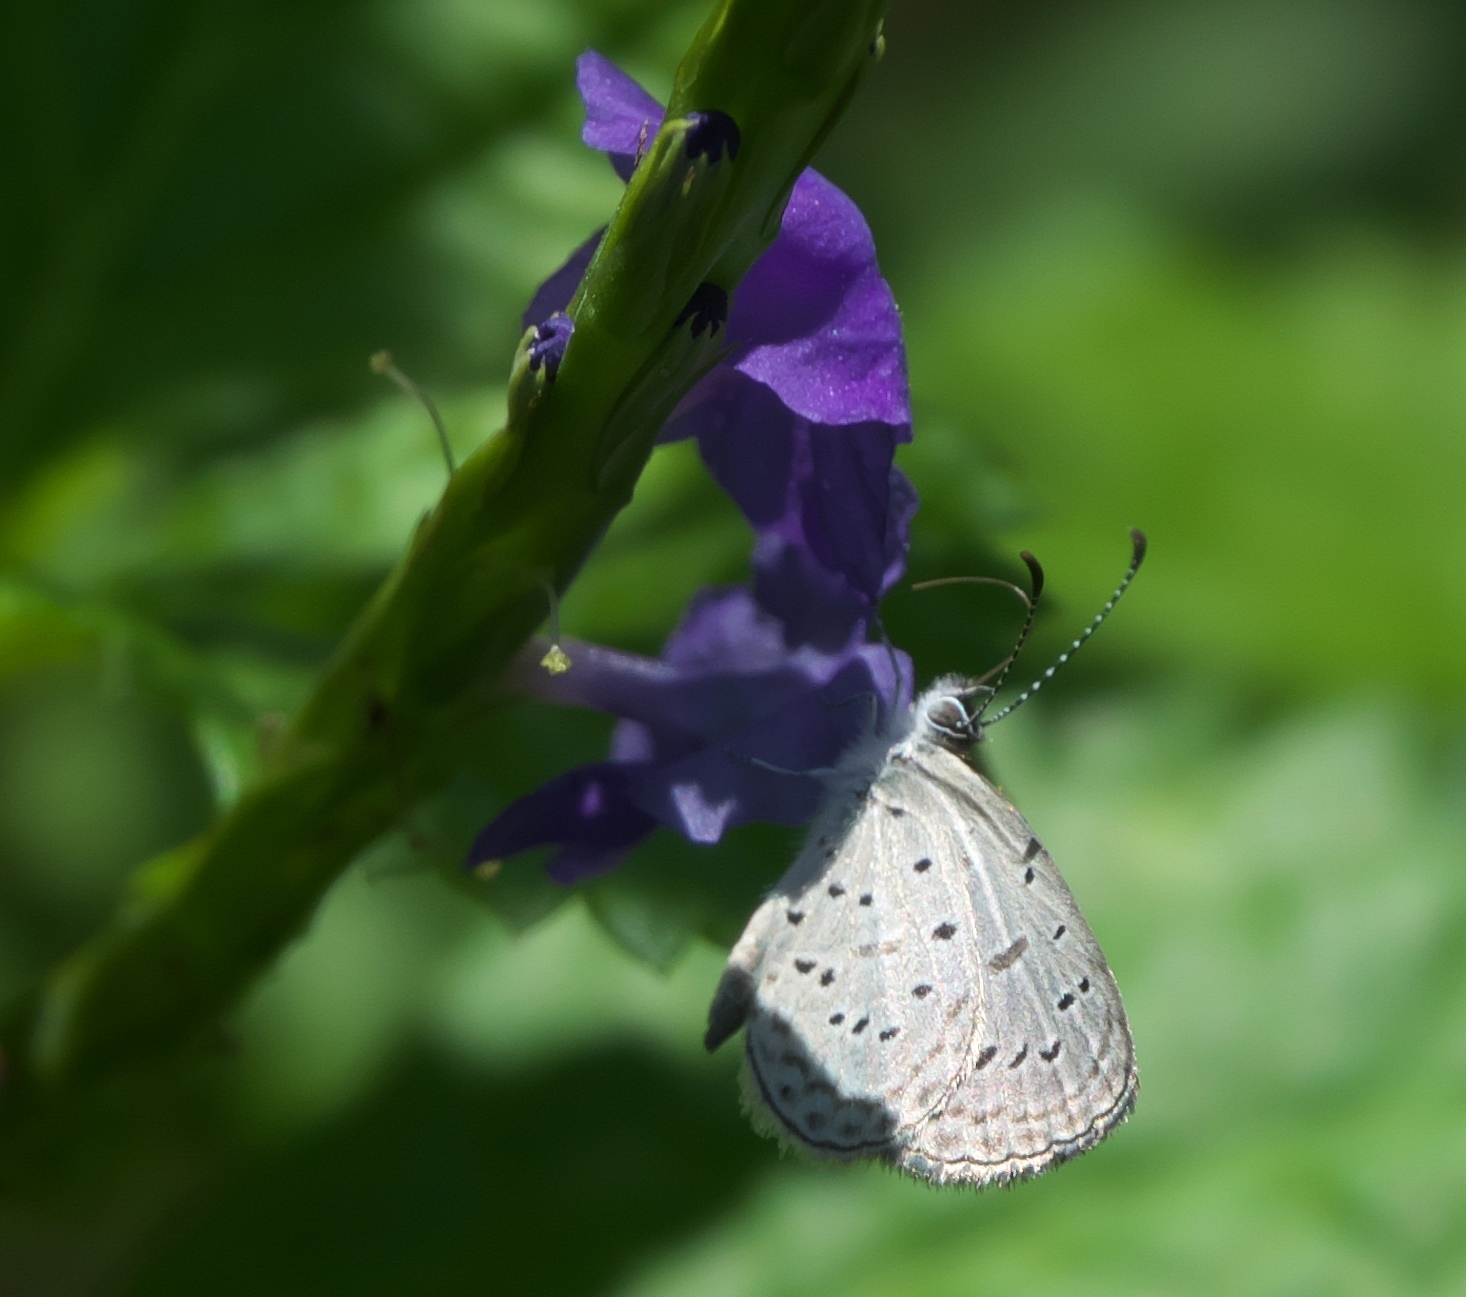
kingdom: Animalia
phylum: Arthropoda
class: Insecta
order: Lepidoptera
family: Lycaenidae
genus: Zizula
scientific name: Zizula hylax
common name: Gaika blue
